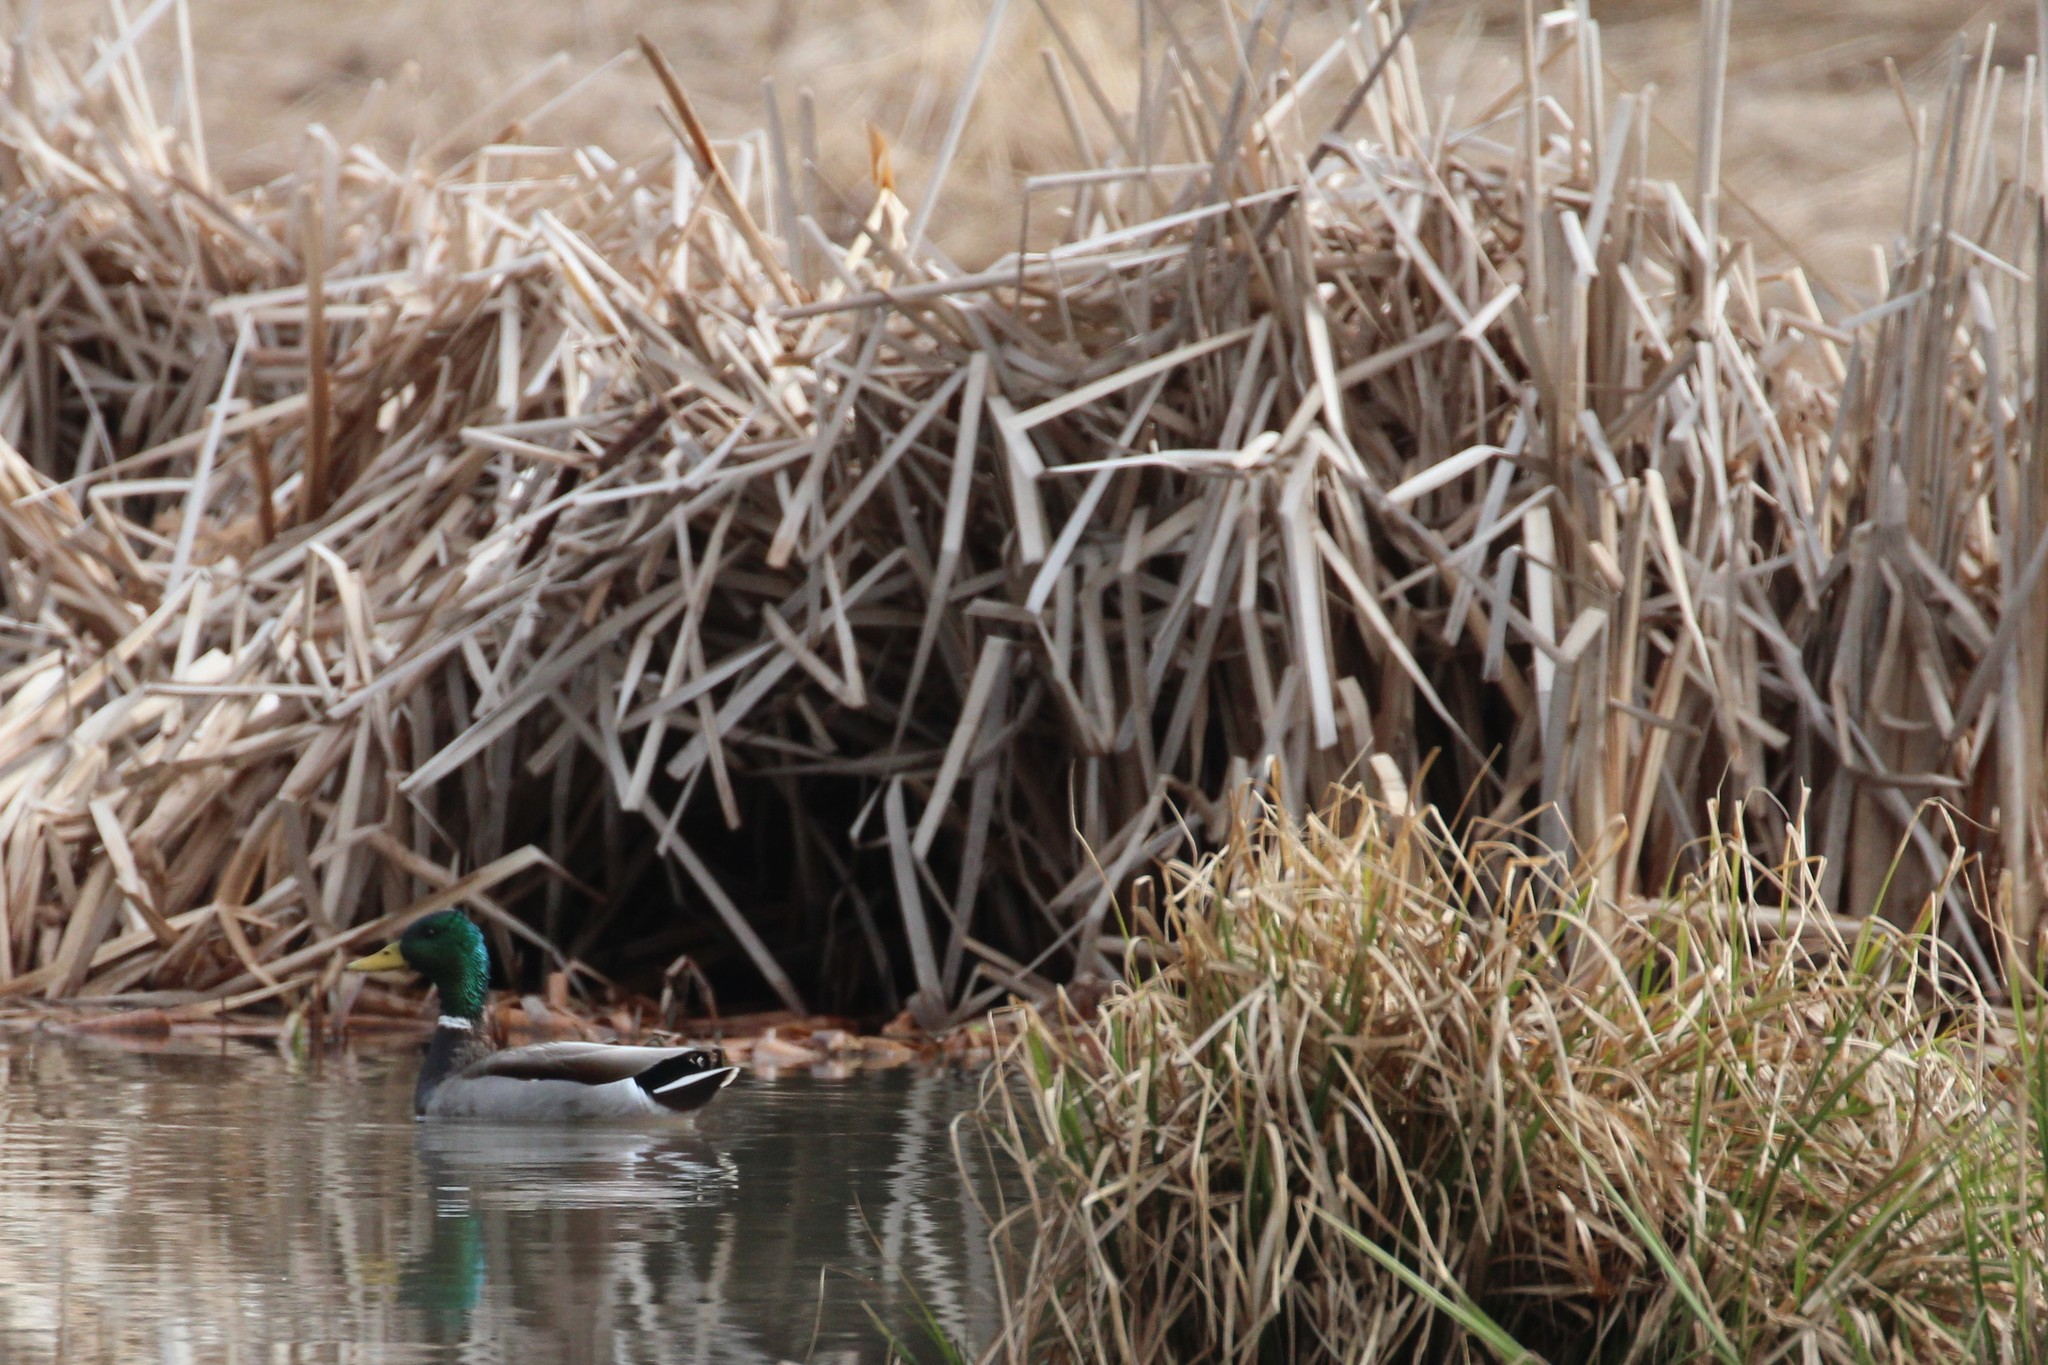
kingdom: Animalia
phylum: Chordata
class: Aves
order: Anseriformes
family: Anatidae
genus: Anas
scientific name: Anas platyrhynchos
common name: Mallard
